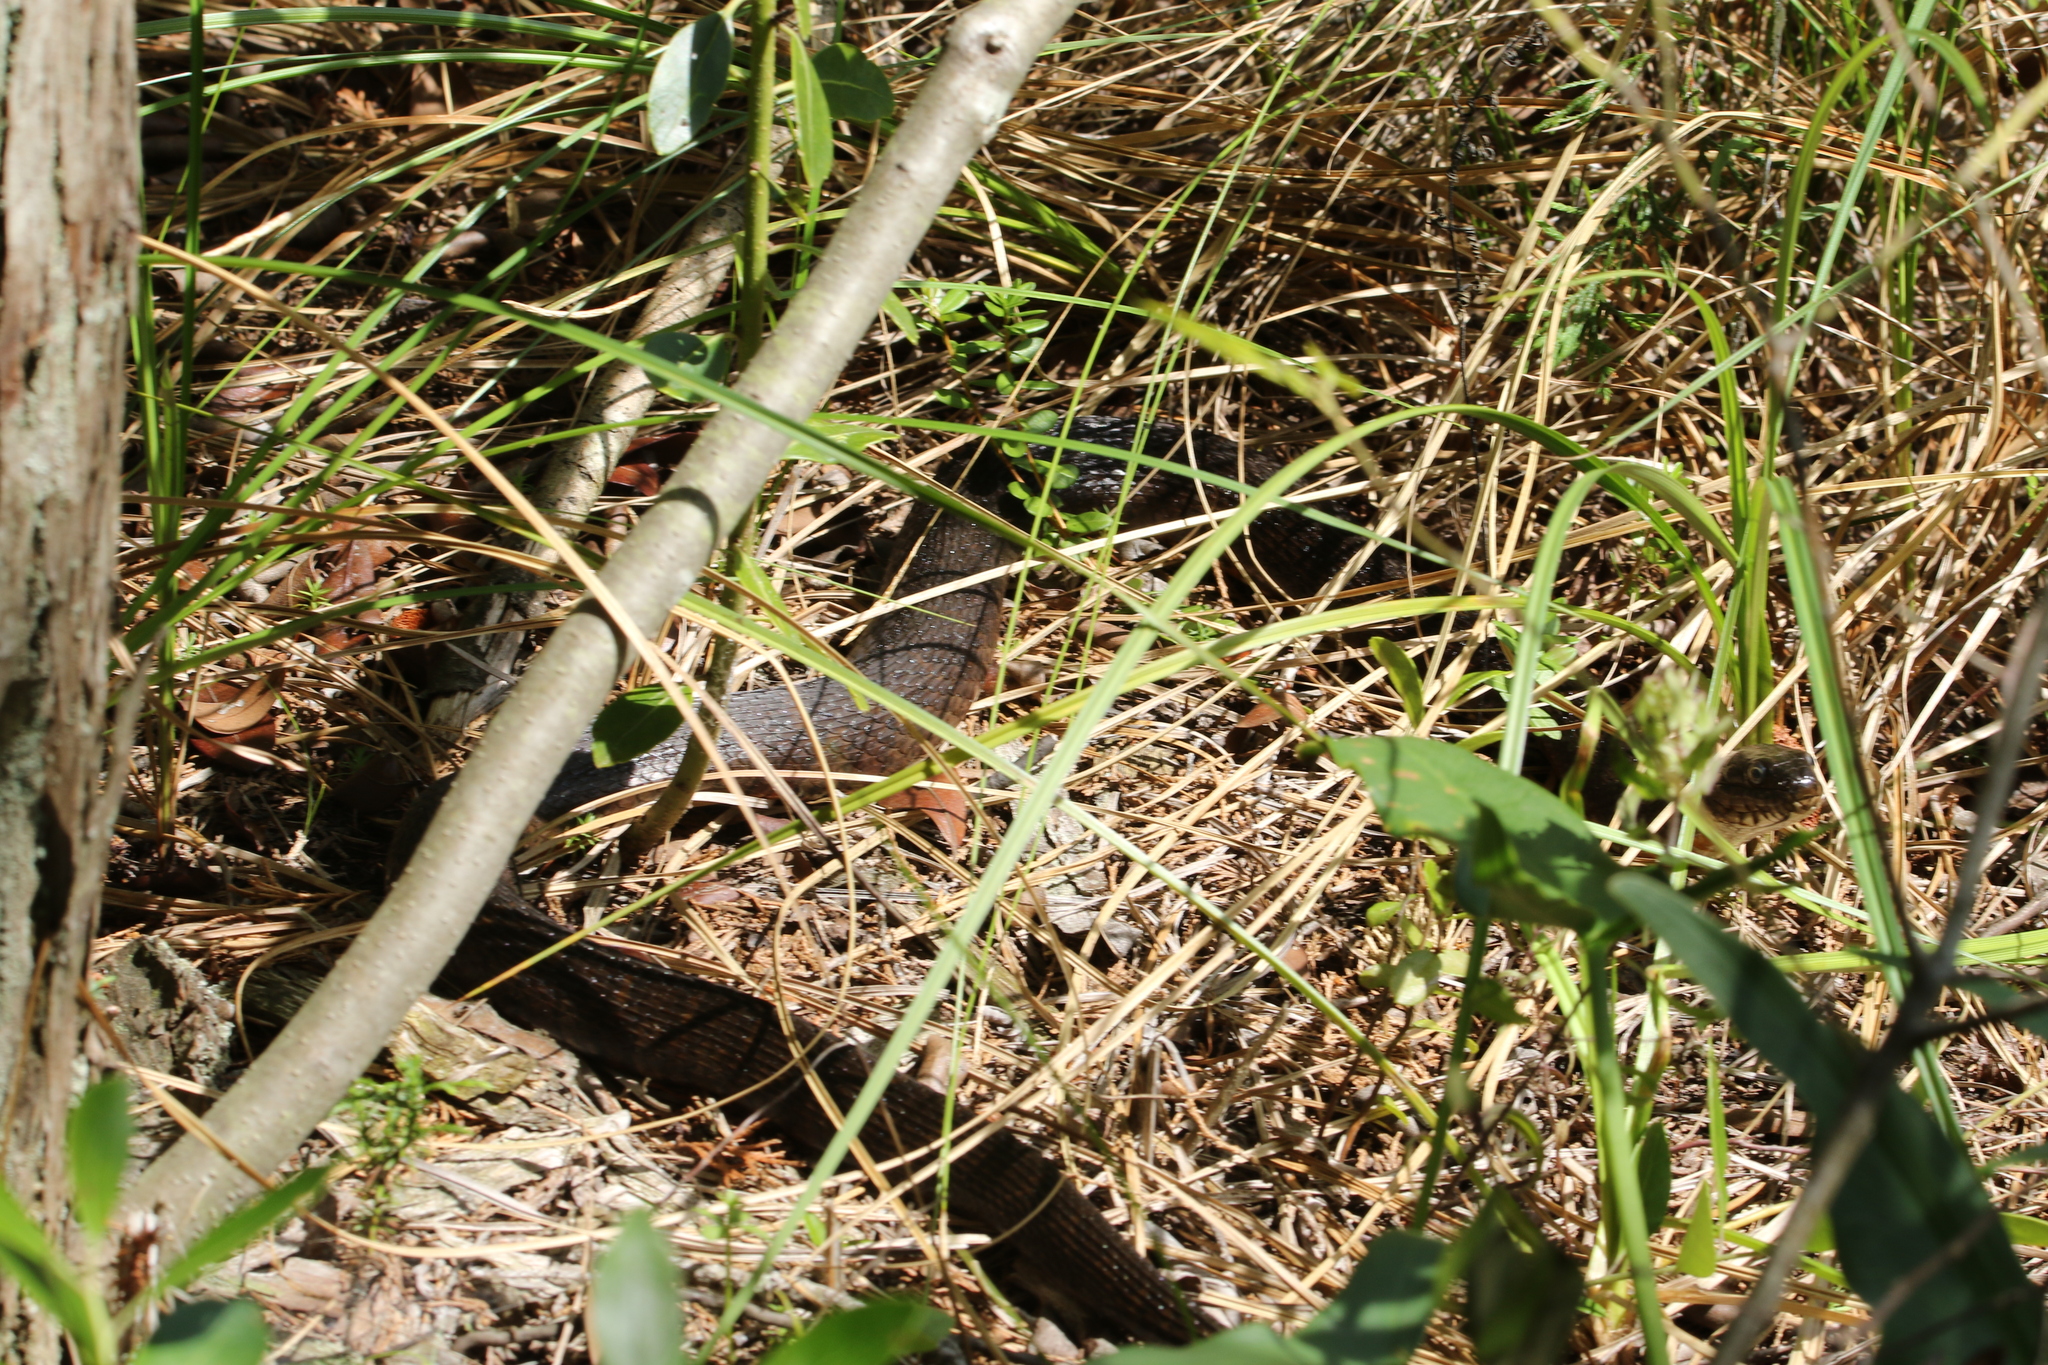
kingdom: Animalia
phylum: Chordata
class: Squamata
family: Colubridae
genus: Nerodia
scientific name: Nerodia sipedon
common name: Northern water snake
